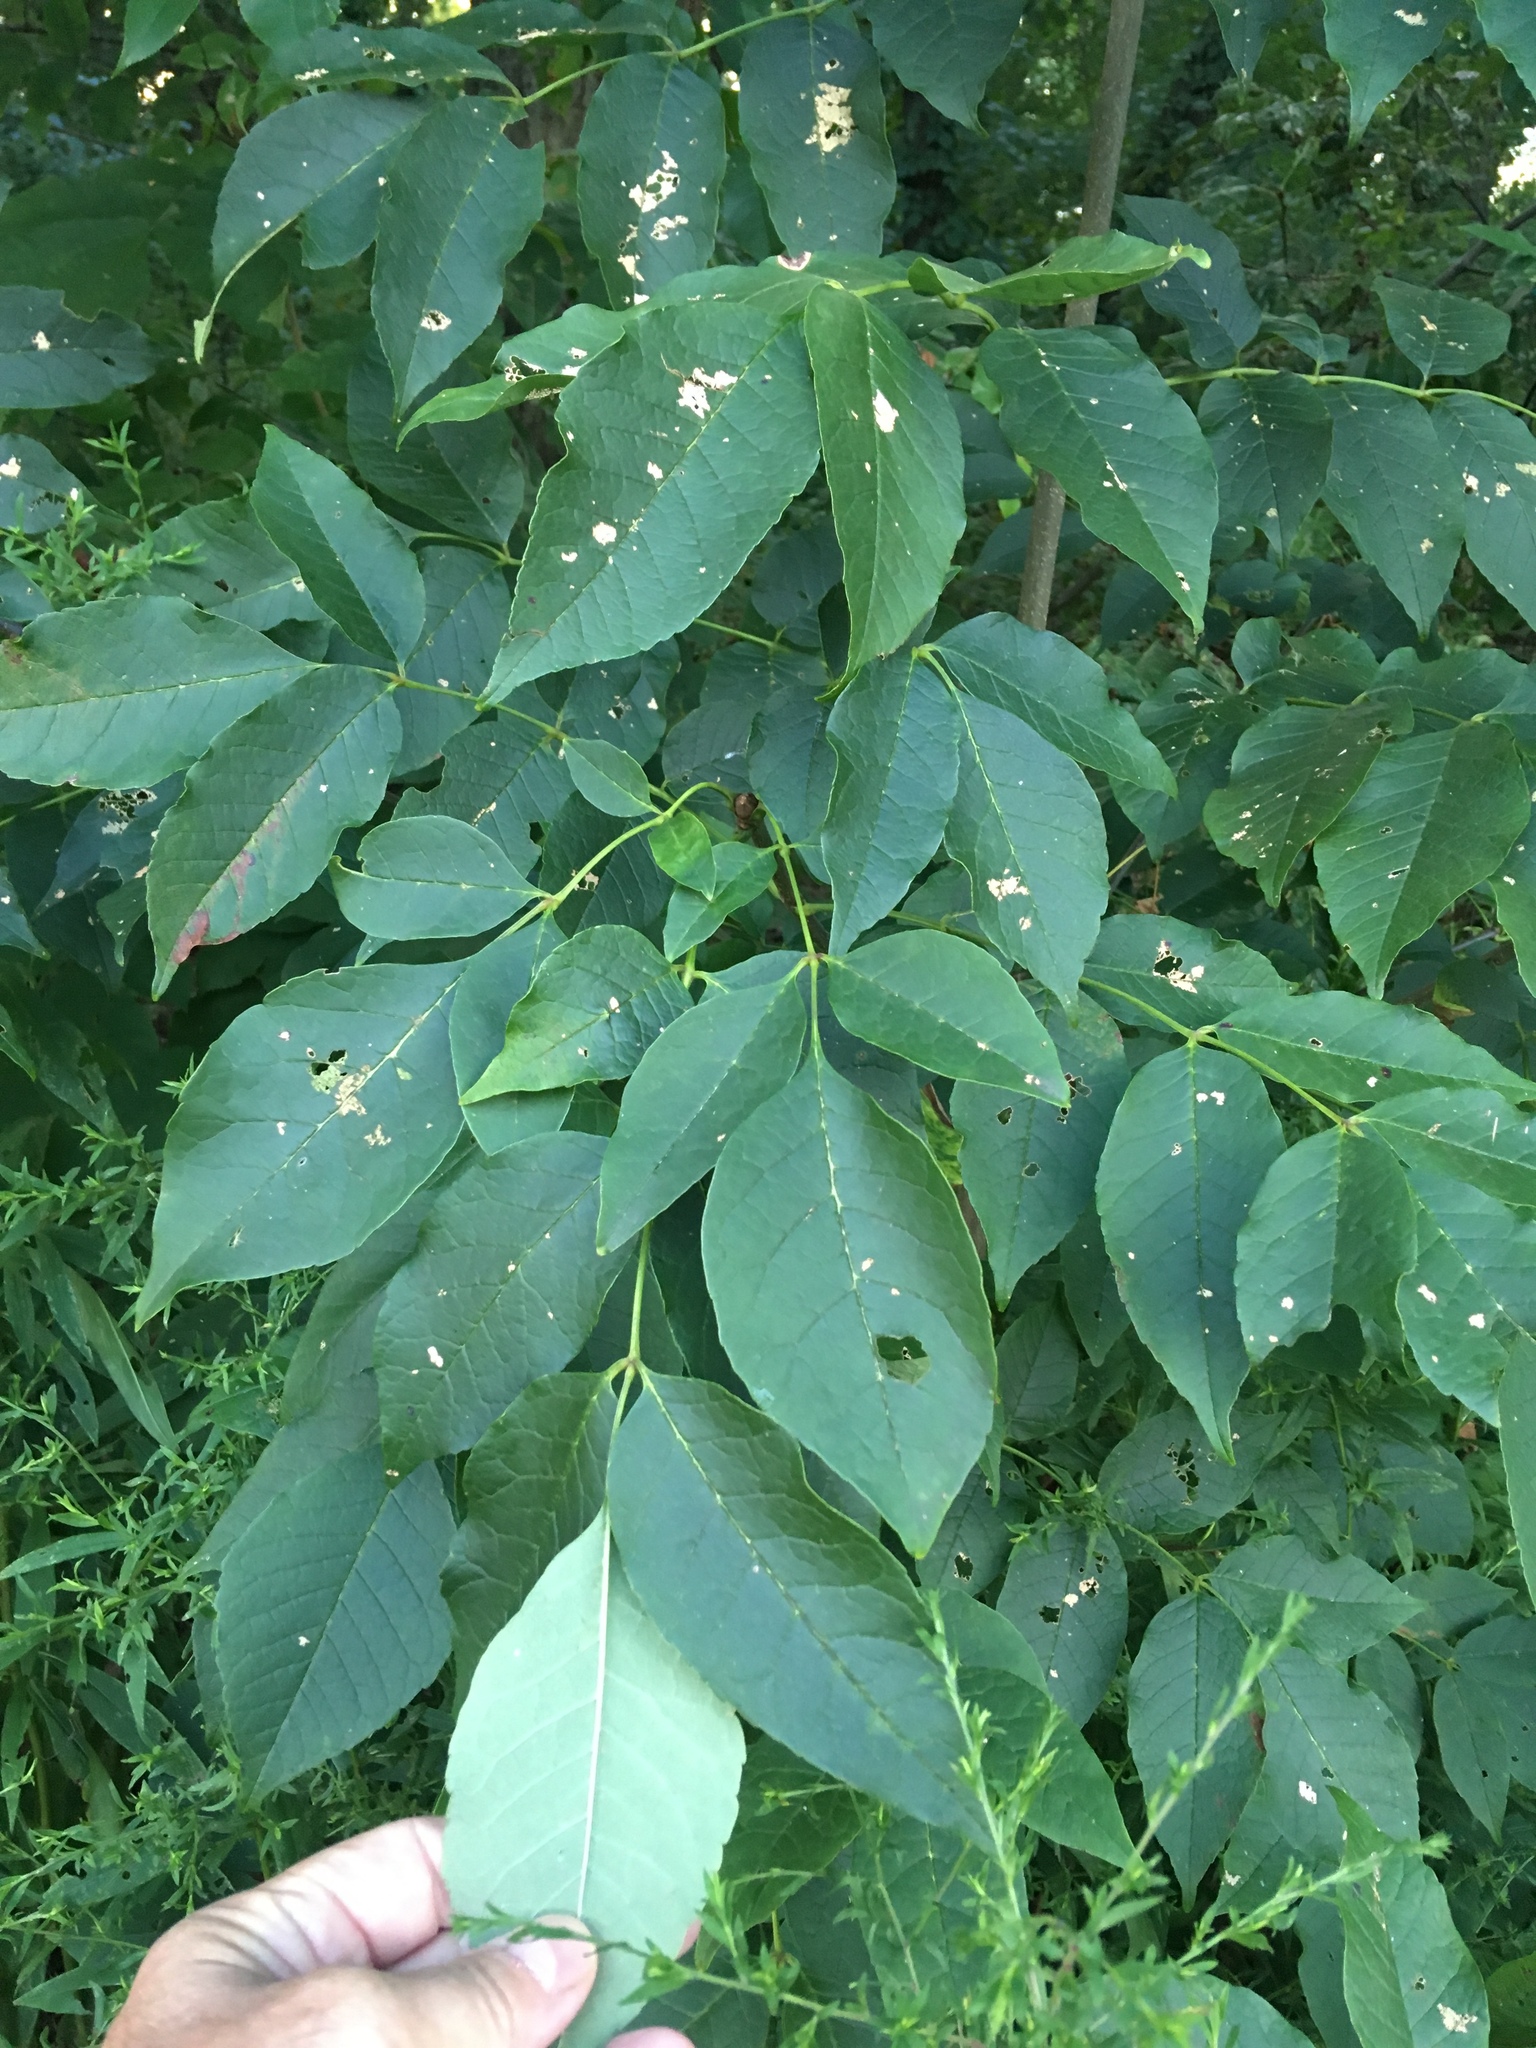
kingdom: Plantae
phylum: Tracheophyta
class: Magnoliopsida
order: Lamiales
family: Oleaceae
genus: Fraxinus
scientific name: Fraxinus americana
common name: White ash
